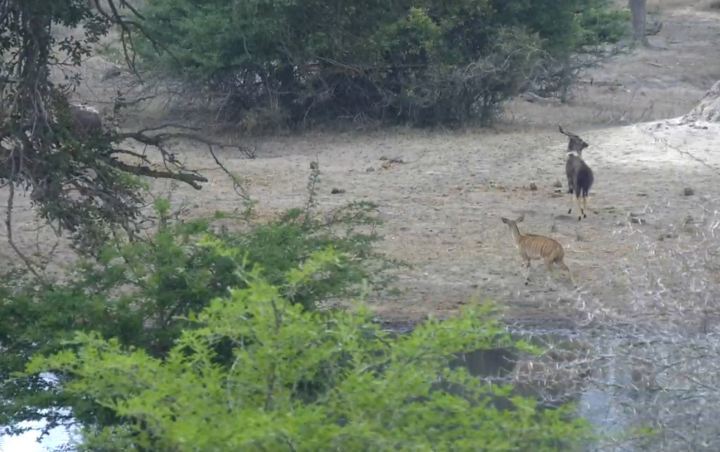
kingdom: Animalia
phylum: Chordata
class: Mammalia
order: Artiodactyla
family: Bovidae
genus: Tragelaphus
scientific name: Tragelaphus angasii
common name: Nyala
